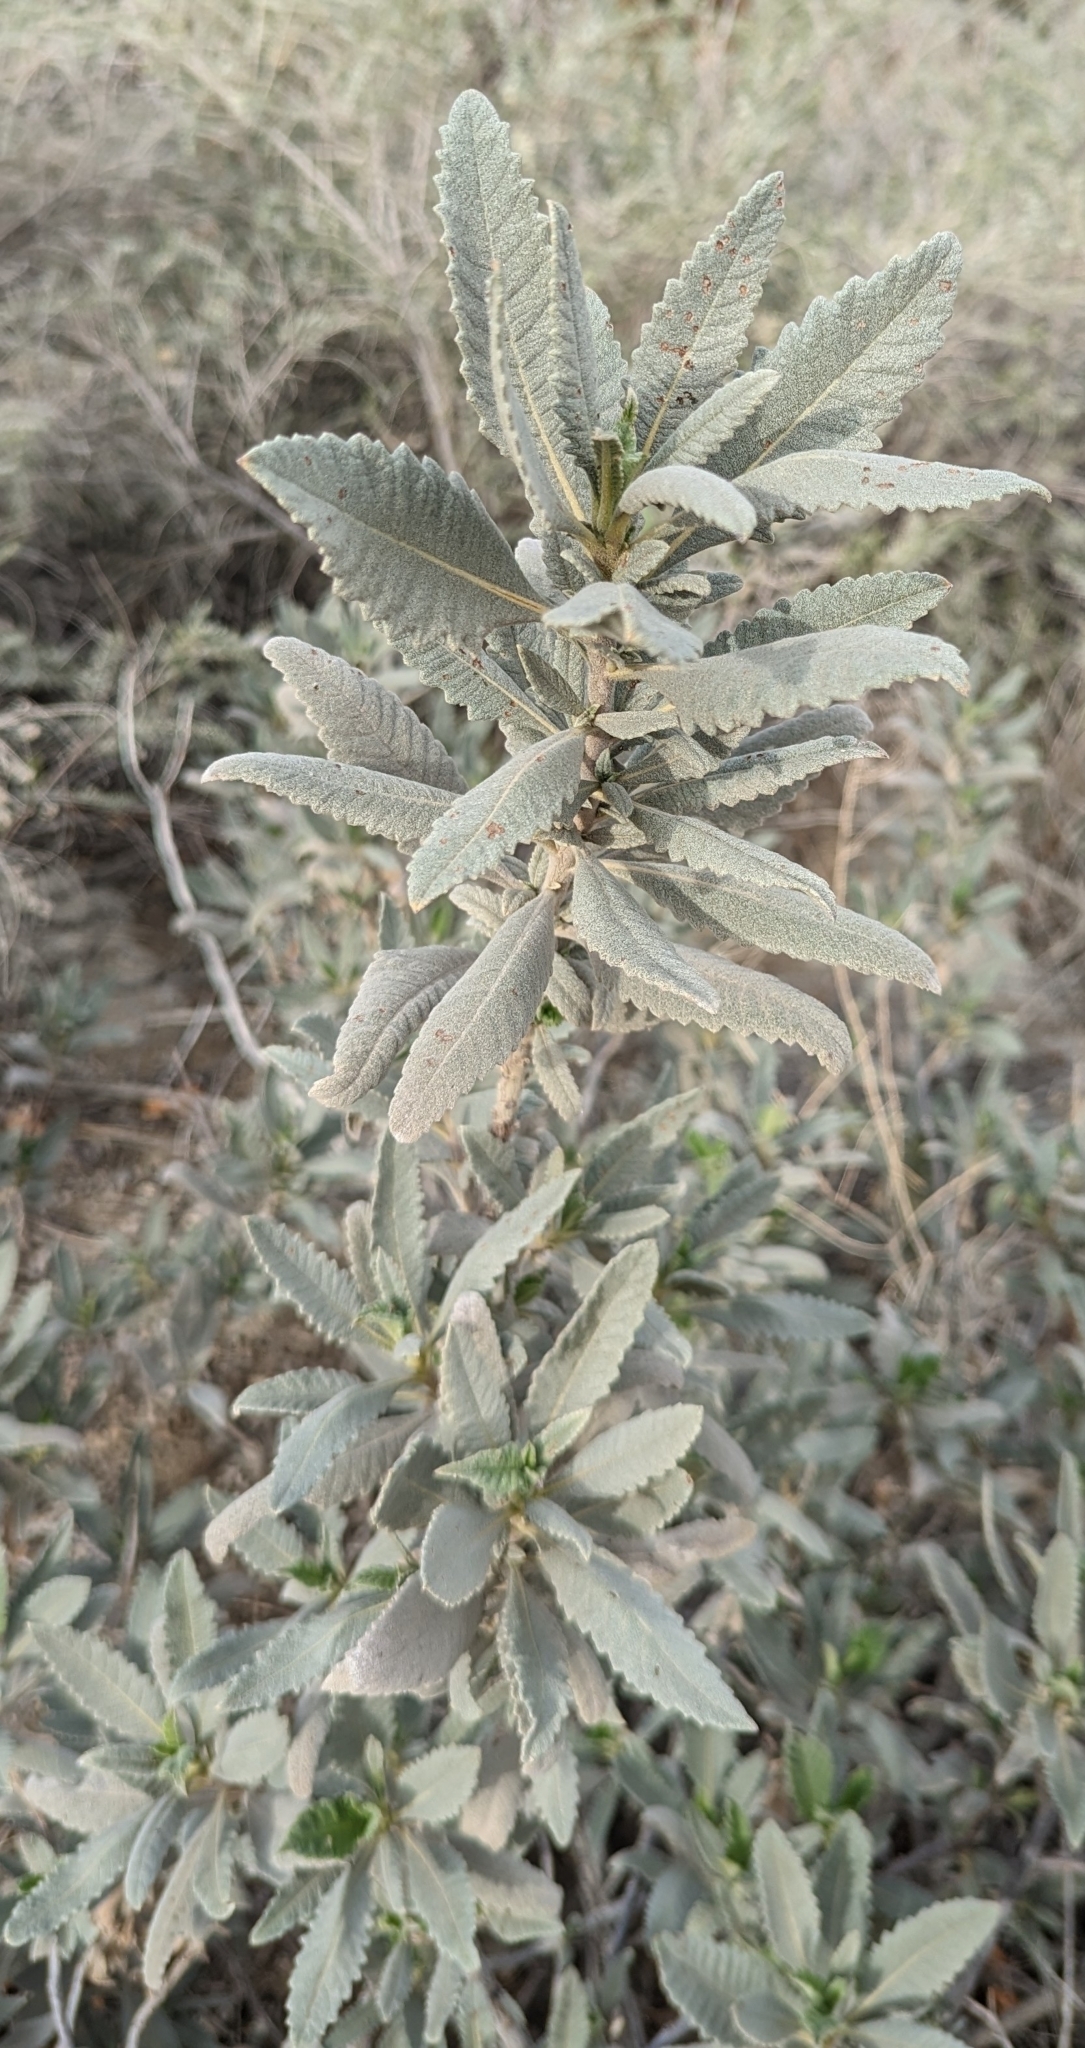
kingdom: Plantae
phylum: Tracheophyta
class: Magnoliopsida
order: Boraginales
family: Namaceae
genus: Eriodictyon
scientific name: Eriodictyon crassifolium
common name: Thick-leaf yerba-santa
